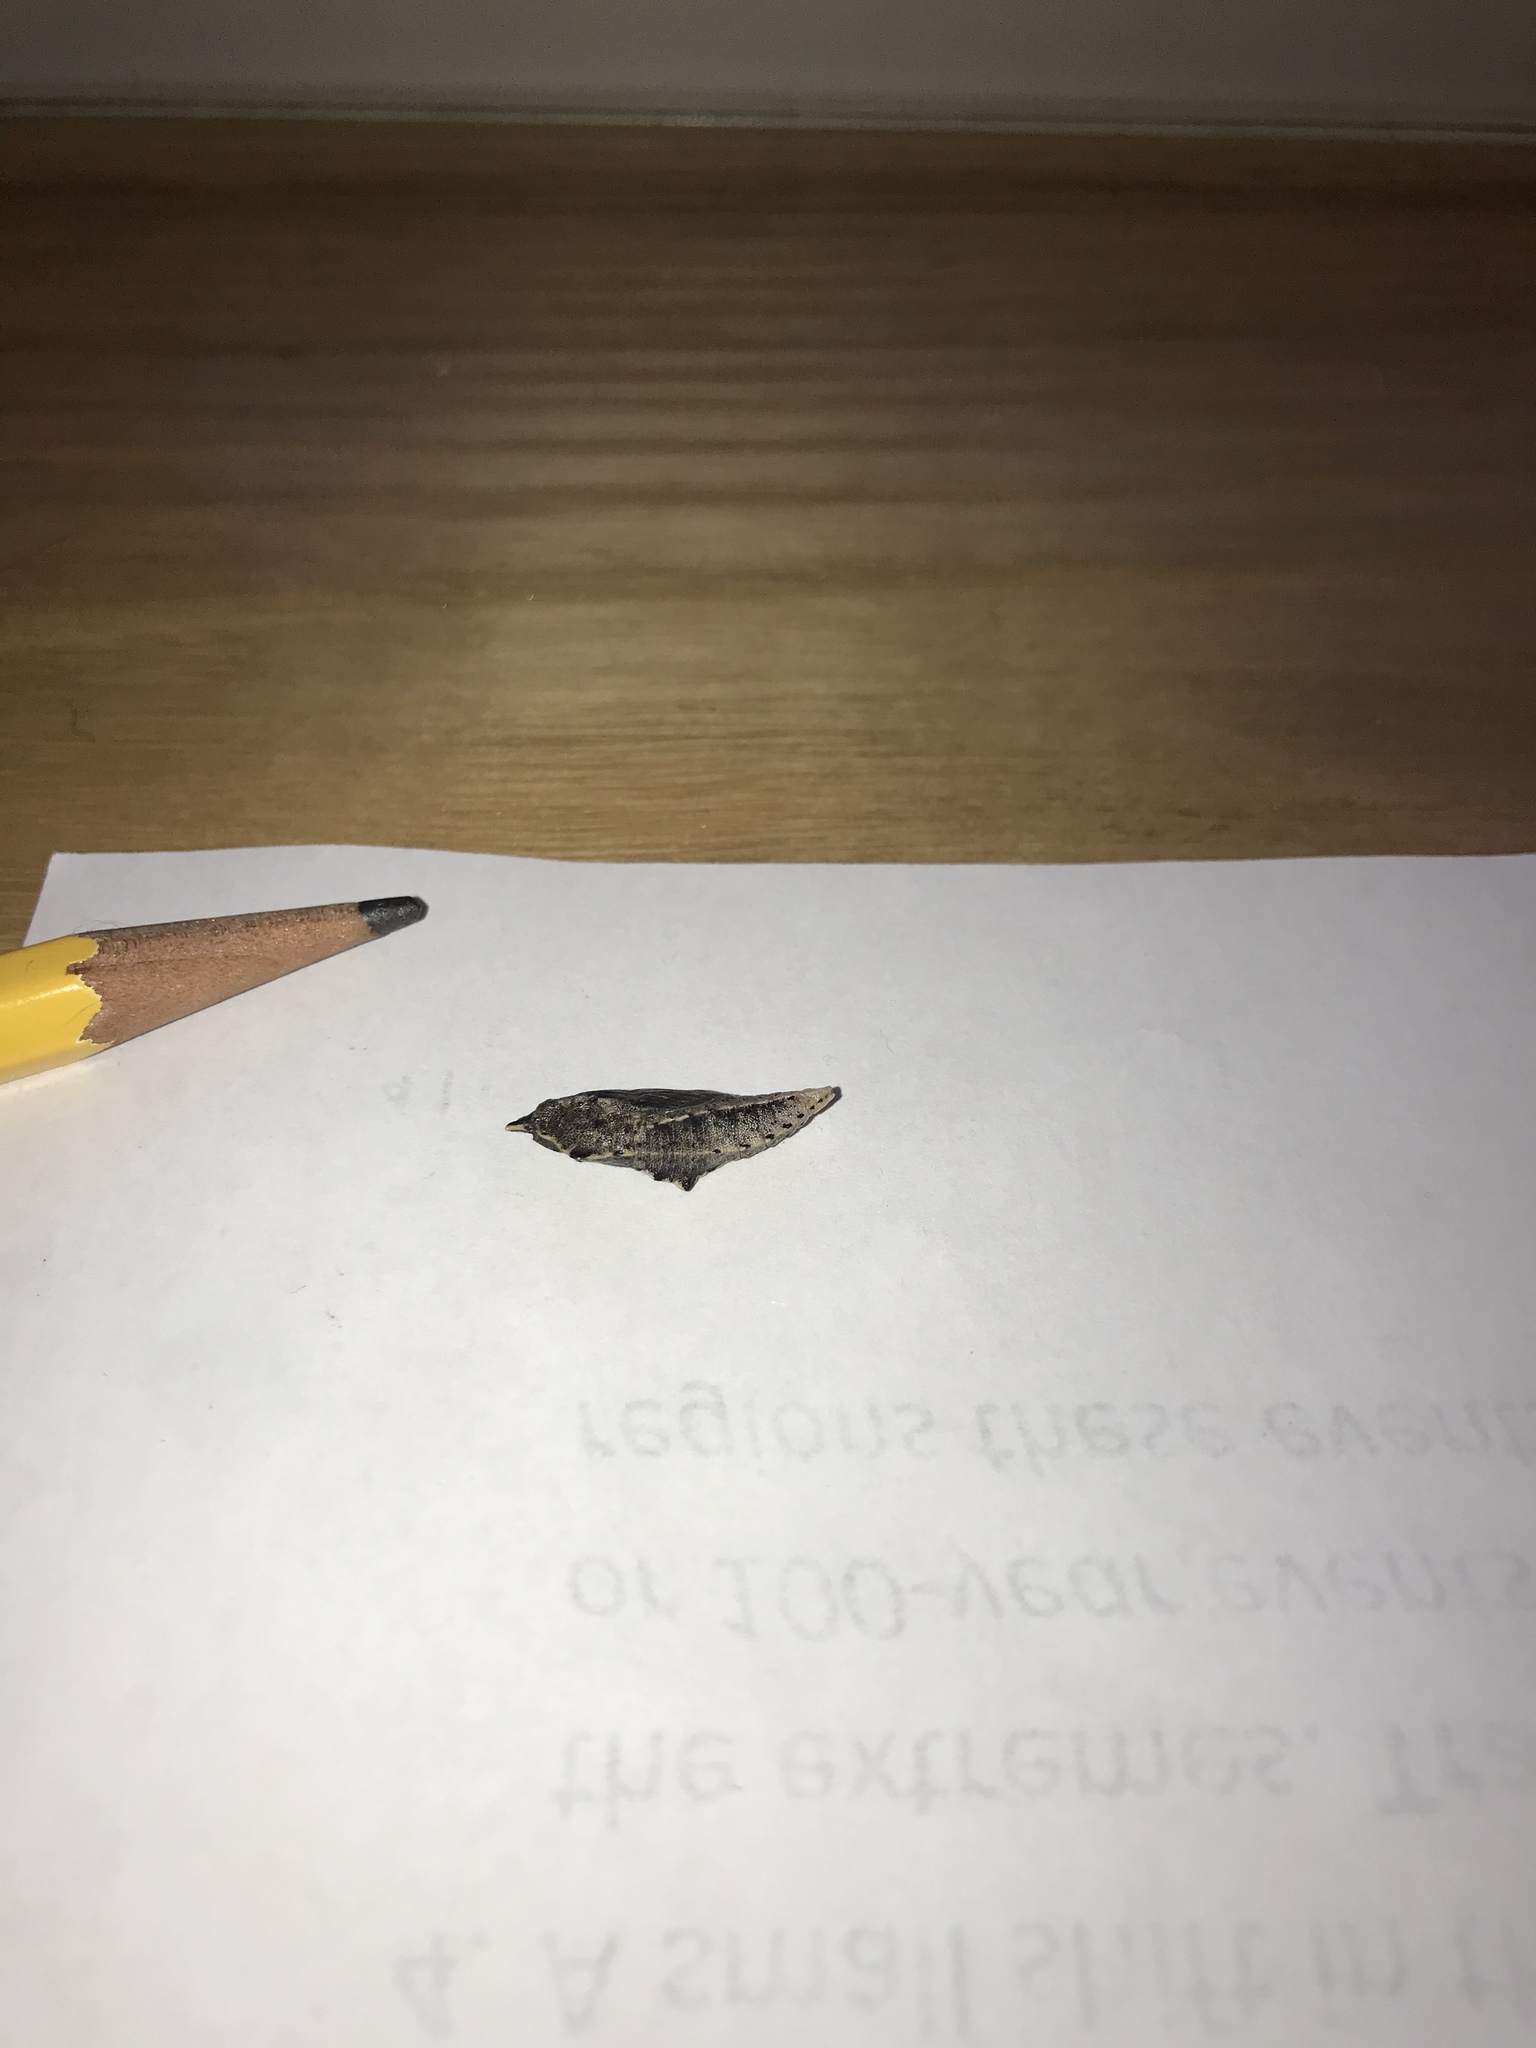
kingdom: Animalia
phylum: Arthropoda
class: Insecta
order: Lepidoptera
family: Pieridae
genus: Pieris
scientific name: Pieris rapae
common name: Small white
